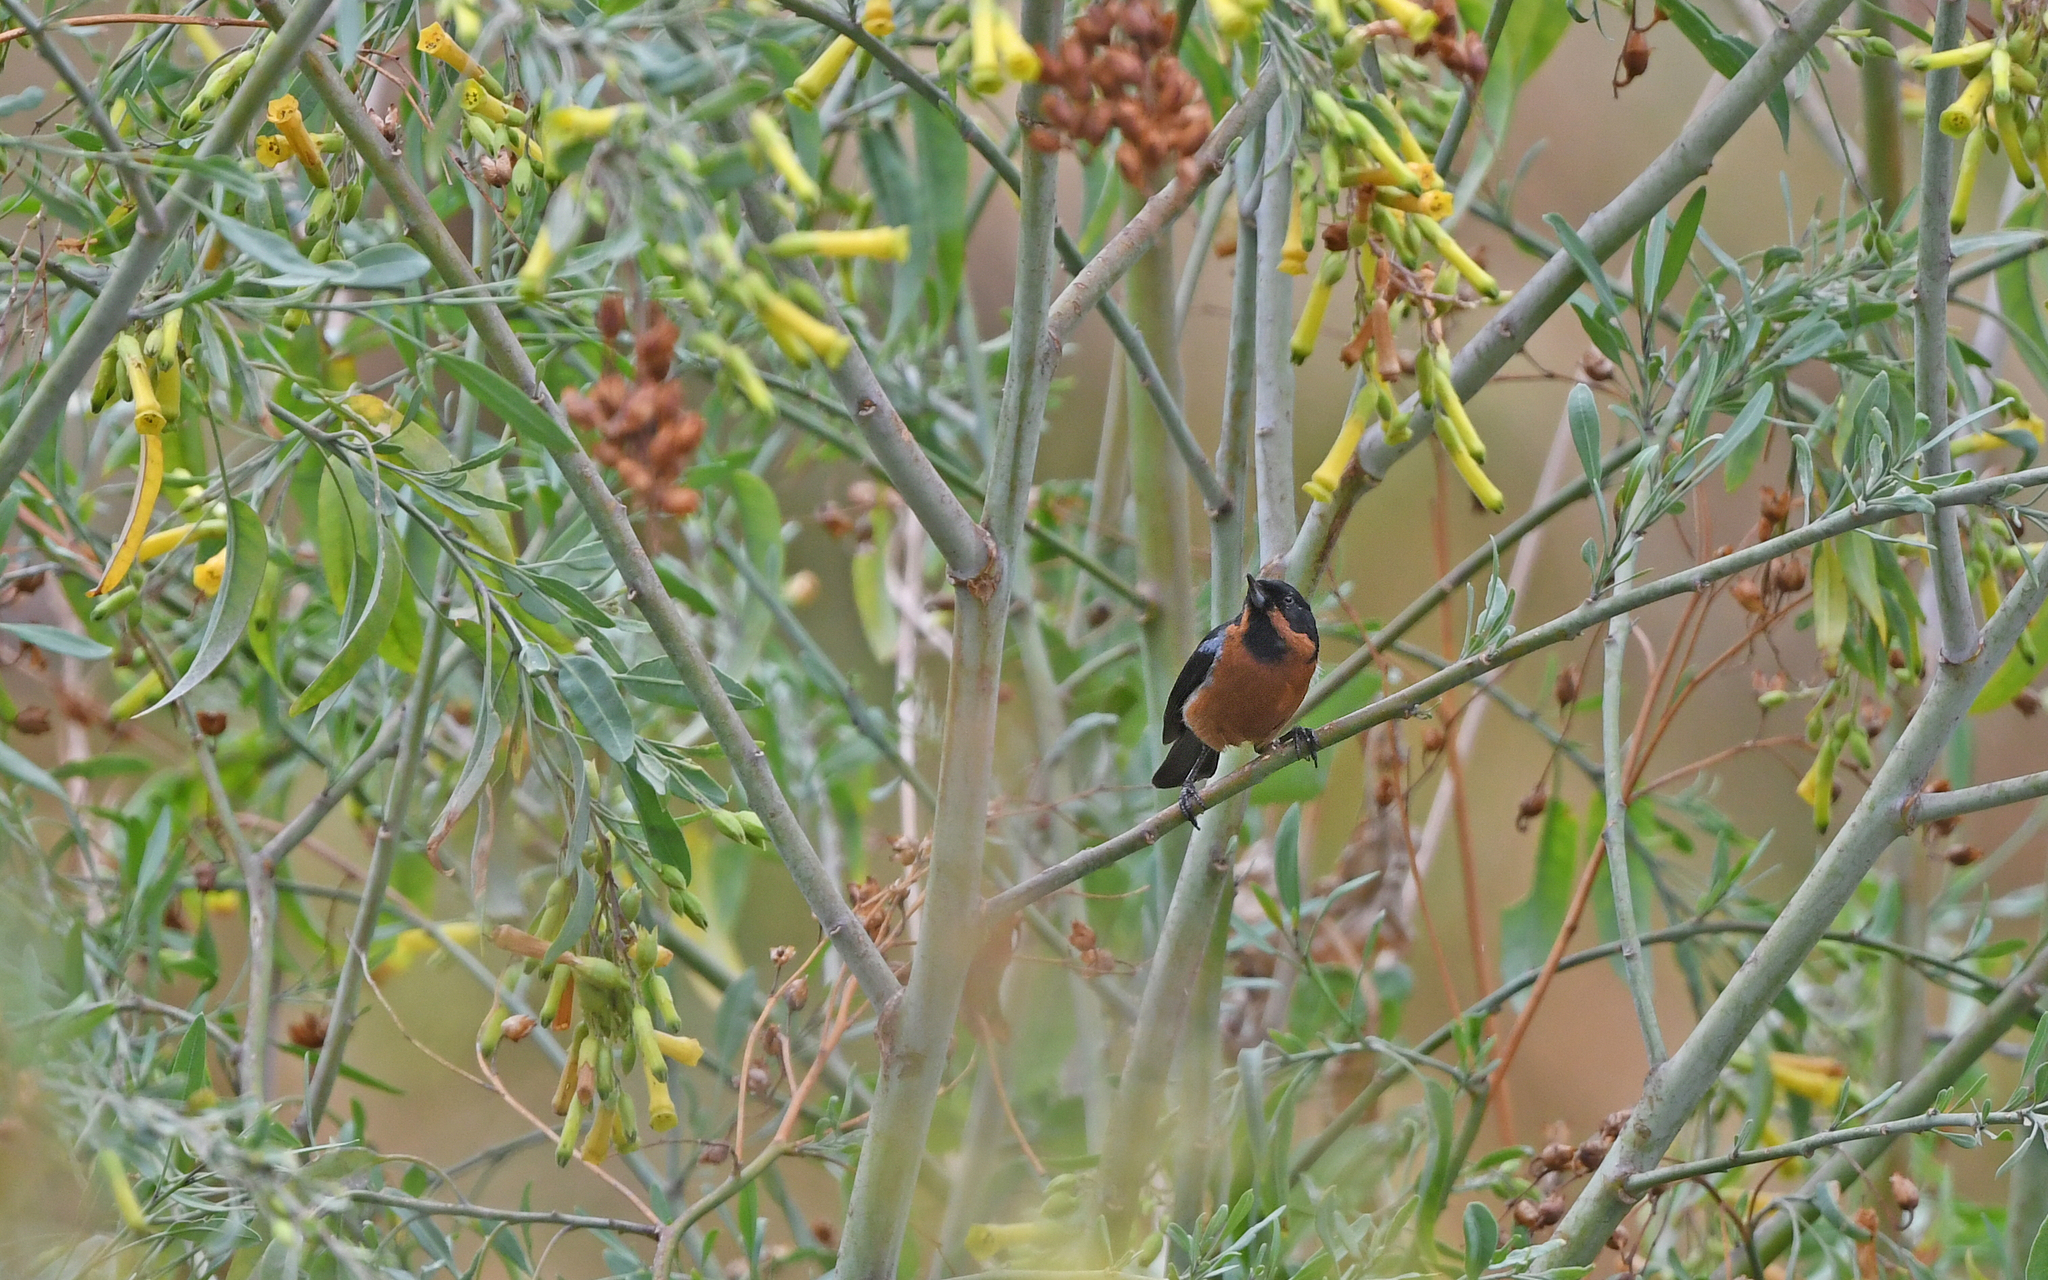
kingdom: Animalia
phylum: Chordata
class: Aves
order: Passeriformes
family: Thraupidae
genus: Diglossa
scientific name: Diglossa brunneiventris
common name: Black-throated flowerpiercer
